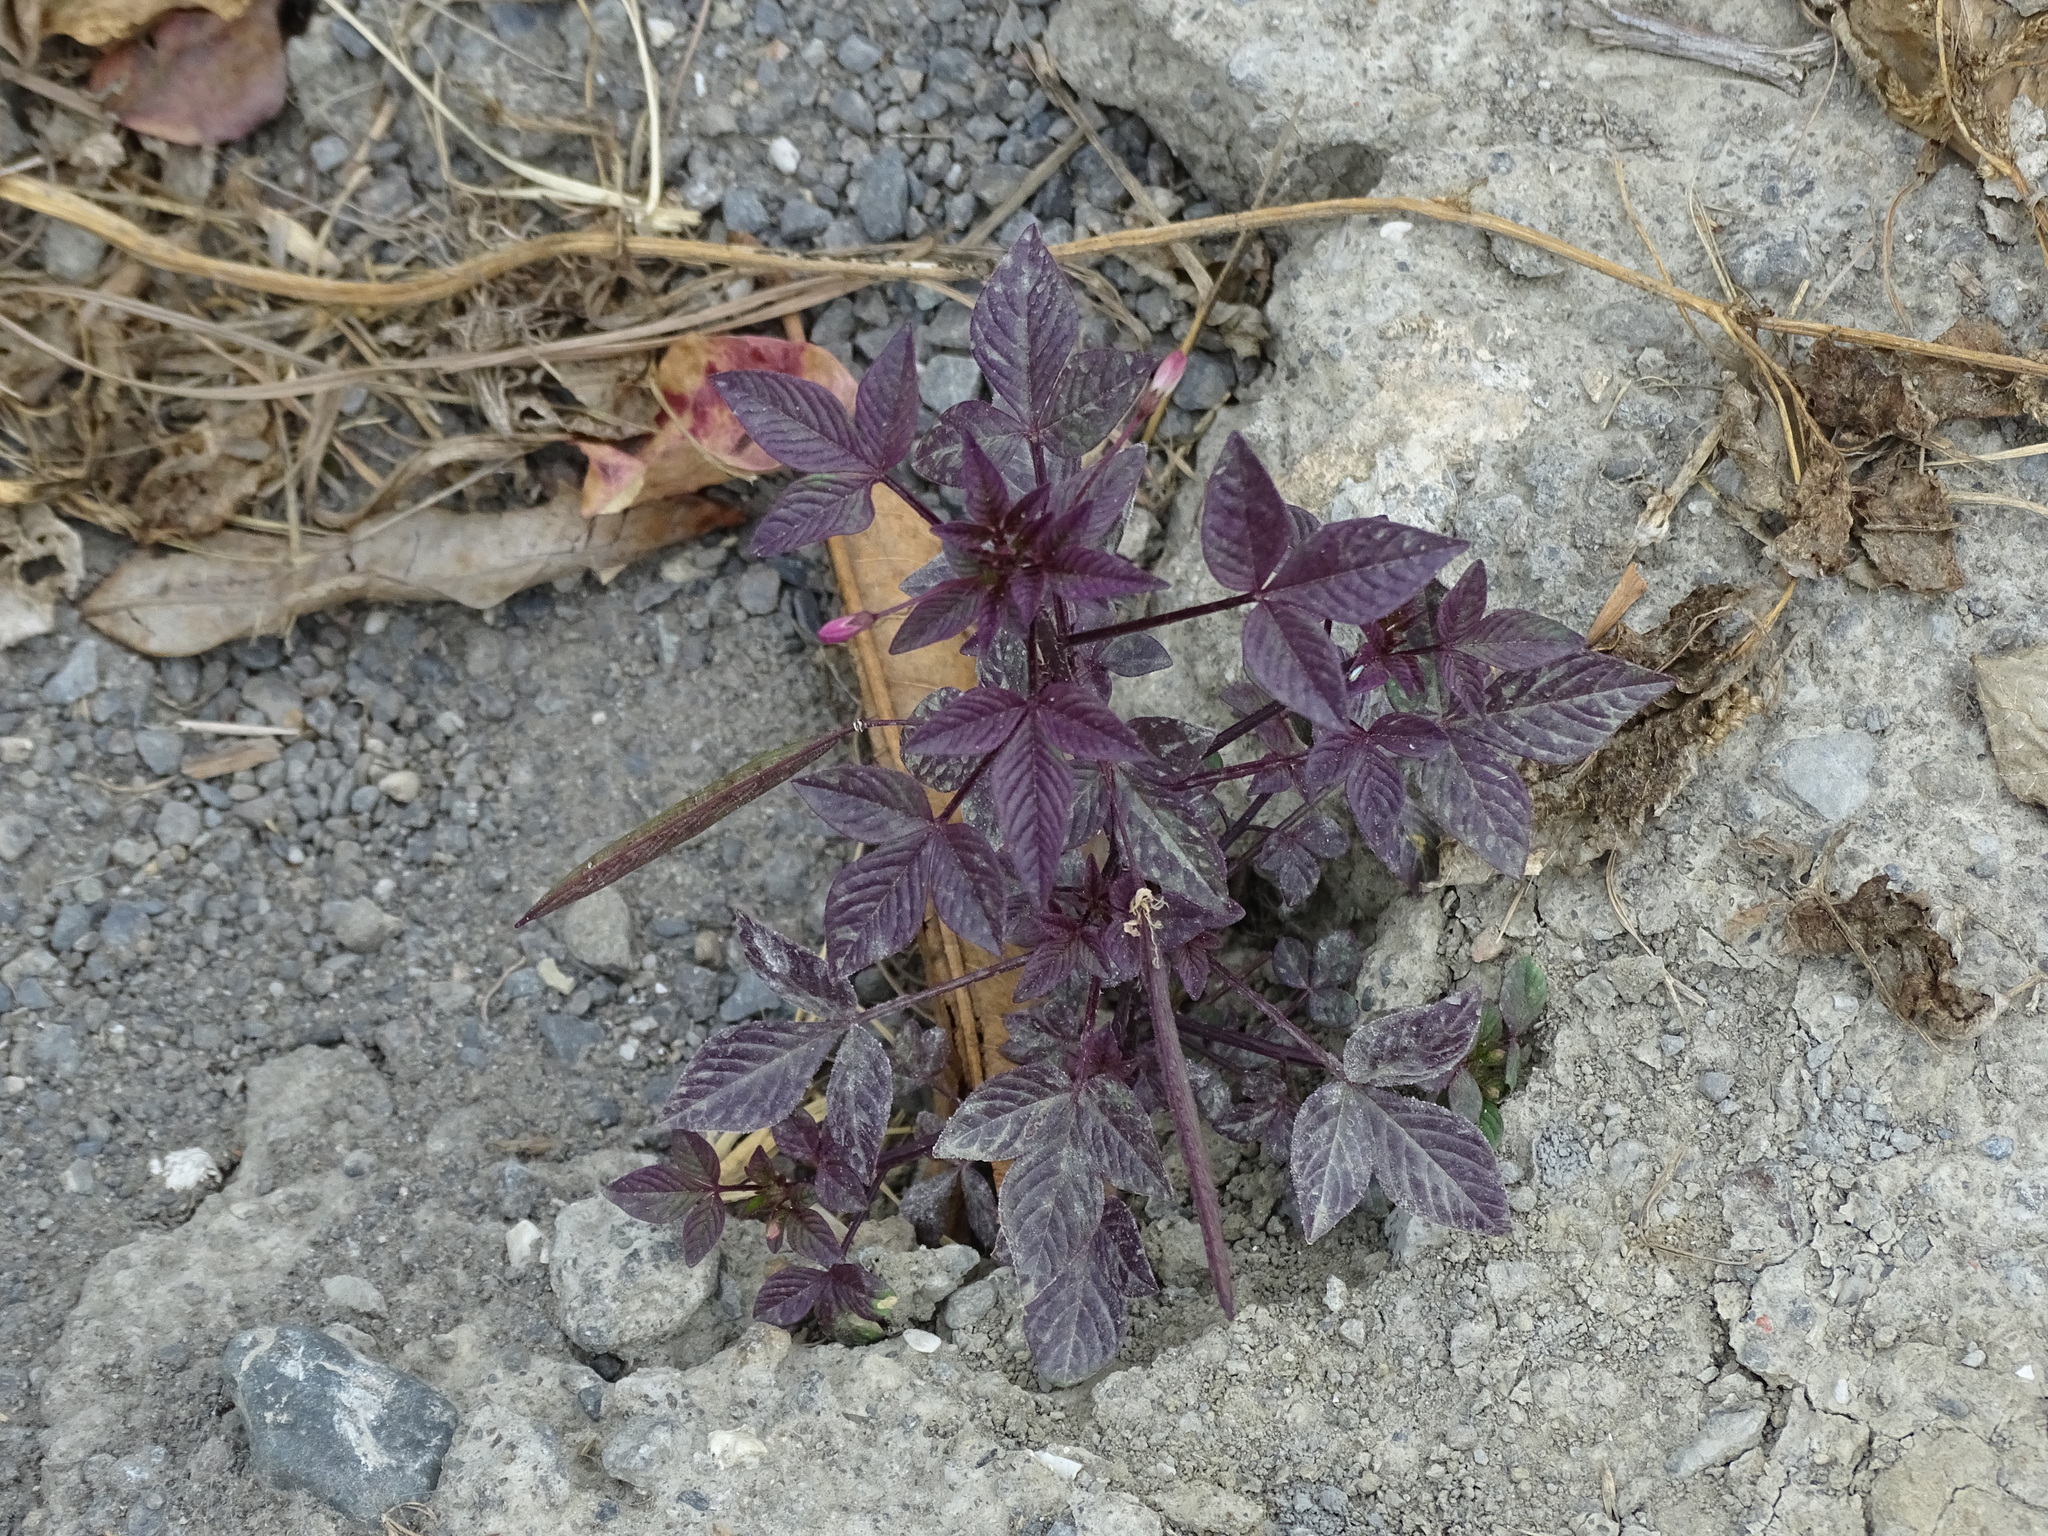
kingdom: Plantae
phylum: Tracheophyta
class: Magnoliopsida
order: Brassicales
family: Cleomaceae
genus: Sieruela
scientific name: Sieruela rutidosperma
